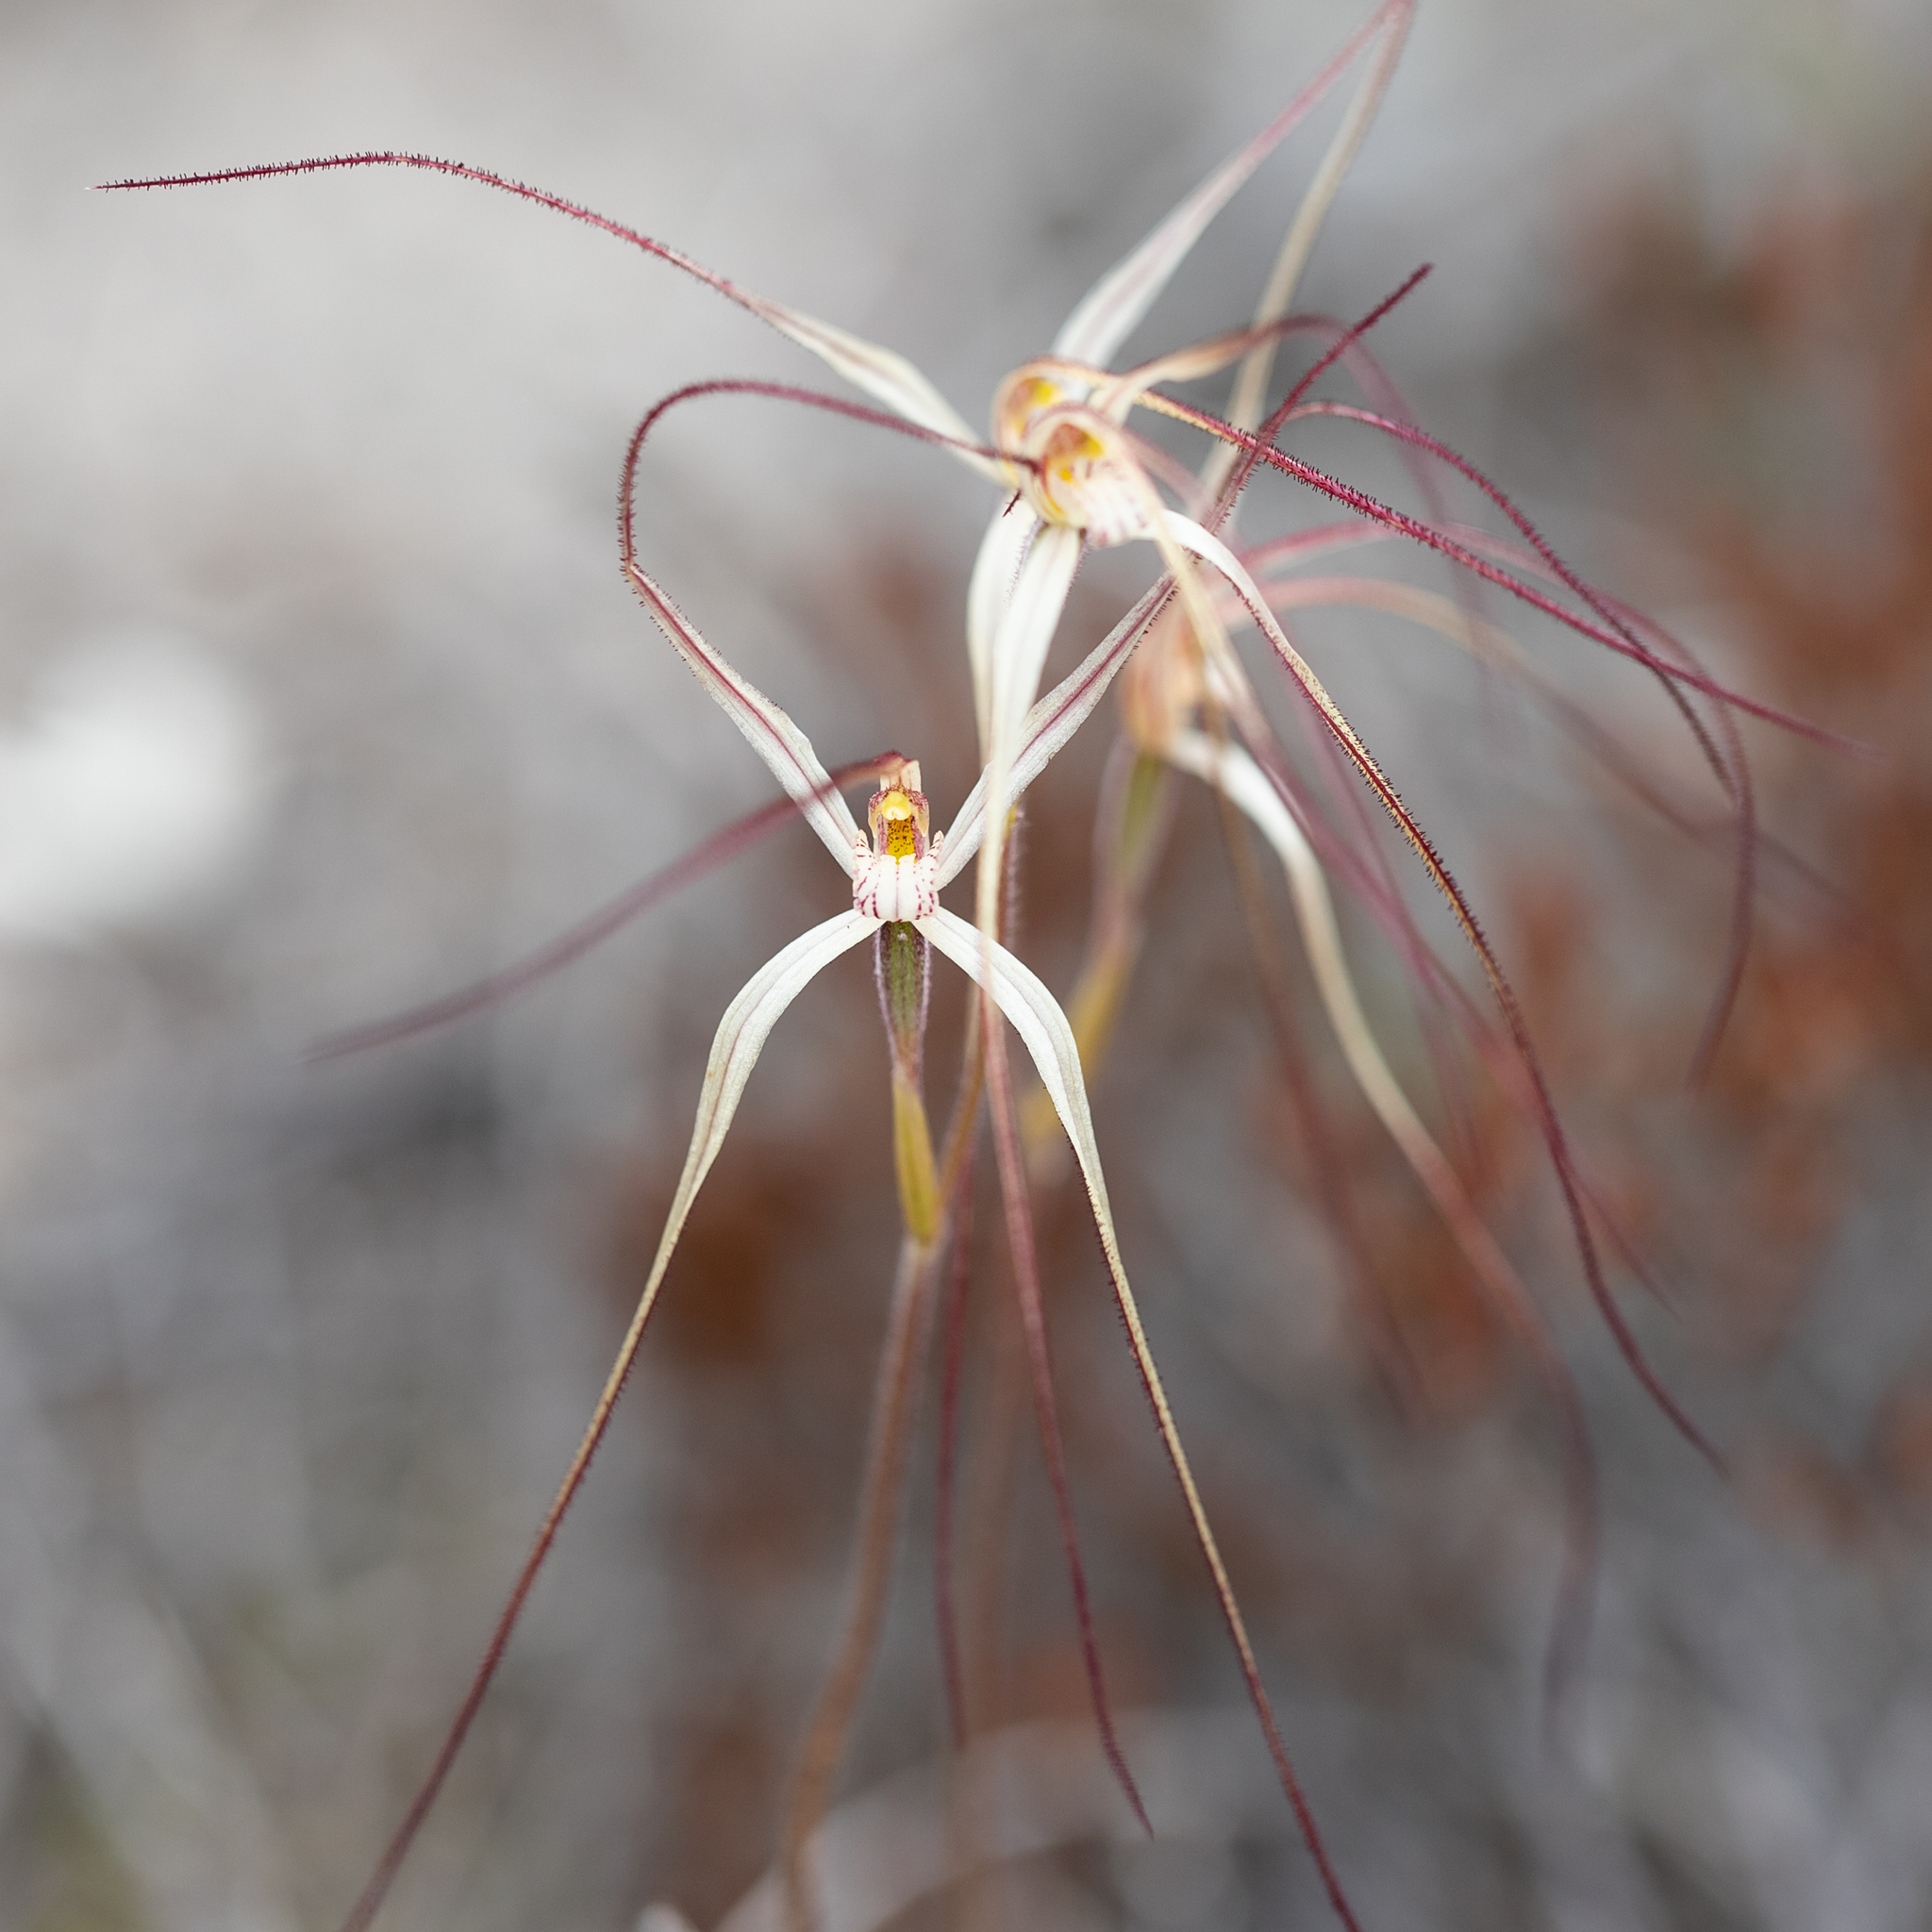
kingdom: Plantae
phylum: Tracheophyta
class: Liliopsida
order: Asparagales
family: Orchidaceae
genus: Caladenia
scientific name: Caladenia capillata
